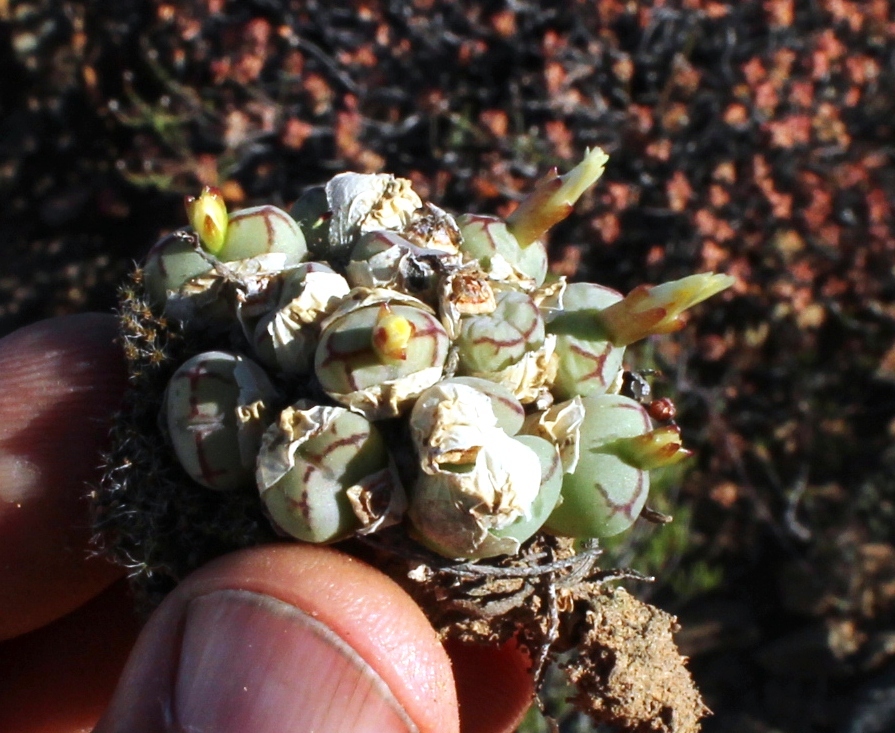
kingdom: Plantae
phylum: Tracheophyta
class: Magnoliopsida
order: Caryophyllales
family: Aizoaceae
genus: Conophytum
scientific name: Conophytum ficiforme
